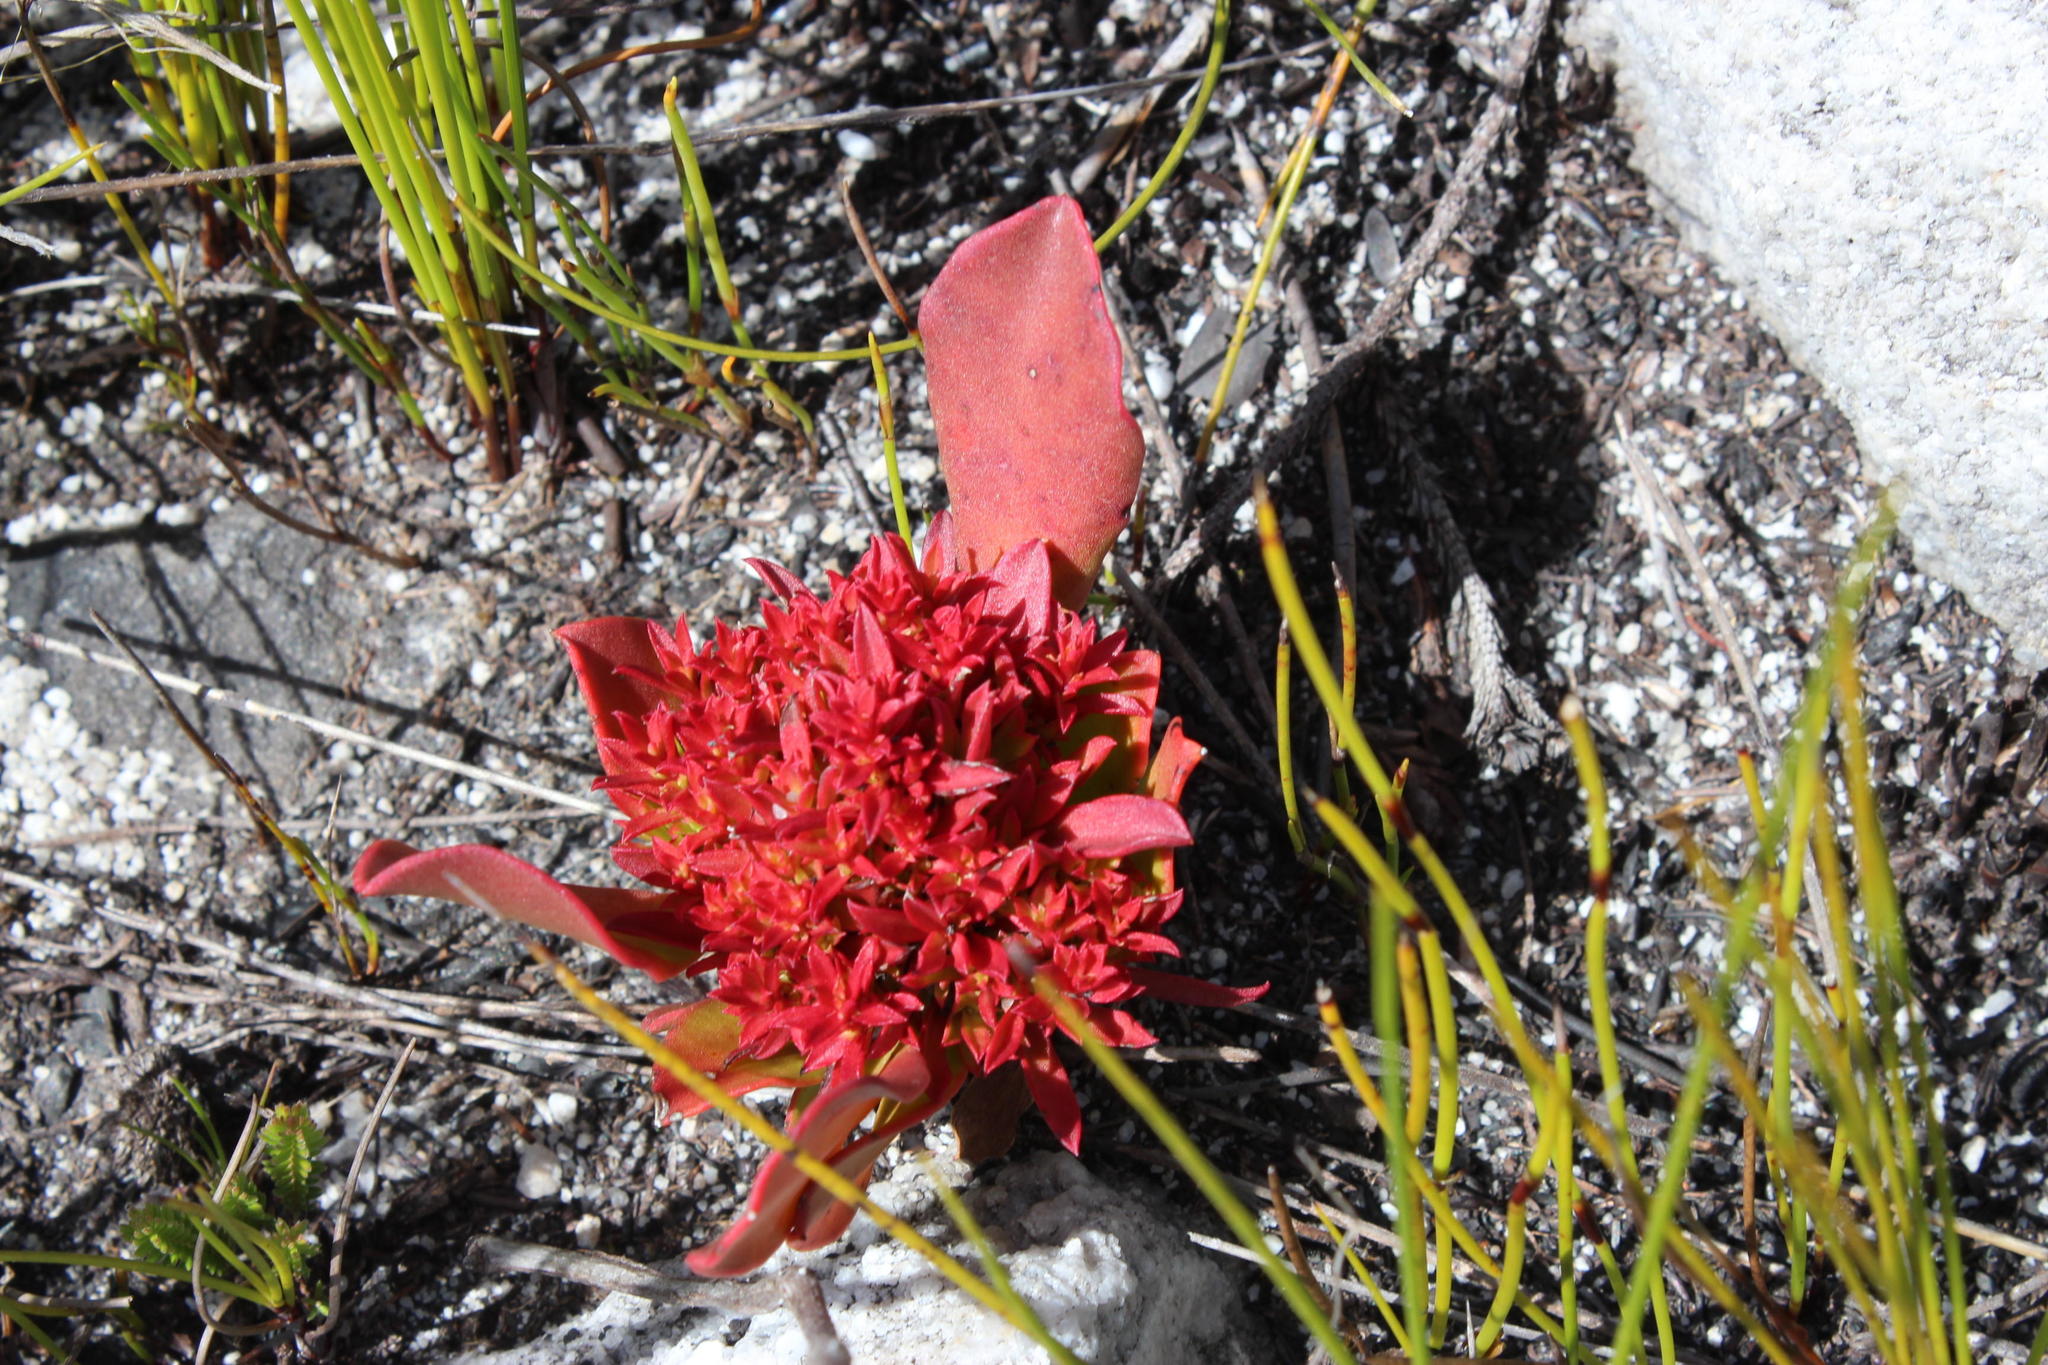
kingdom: Bacteria
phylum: Firmicutes
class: Bacilli
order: Acholeplasmatales
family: Acholeplasmataceae
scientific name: Acholeplasmataceae
